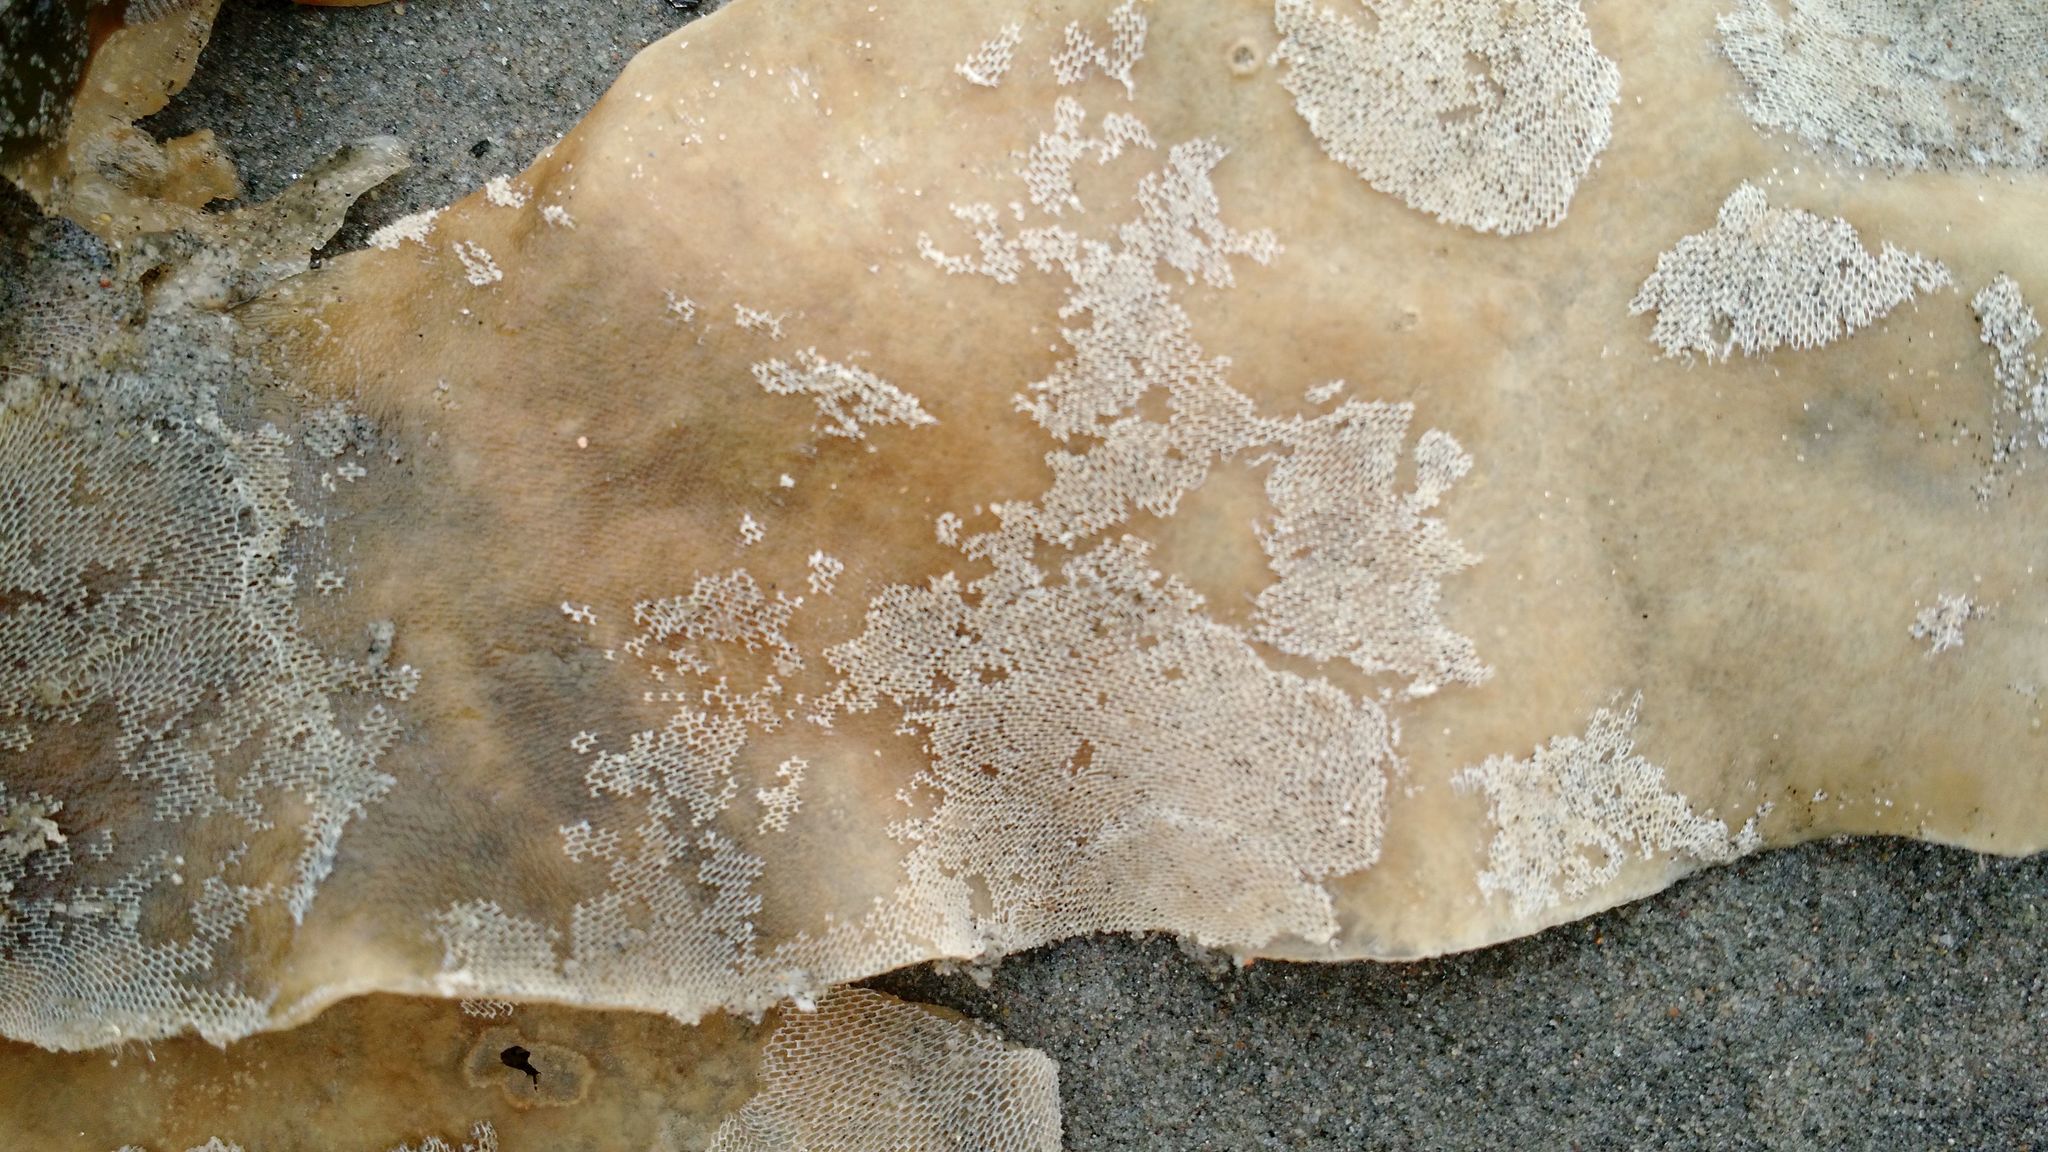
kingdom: Animalia
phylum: Bryozoa
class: Gymnolaemata
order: Cheilostomatida
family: Membraniporidae
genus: Membranipora
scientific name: Membranipora membranacea
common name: Sea mat
